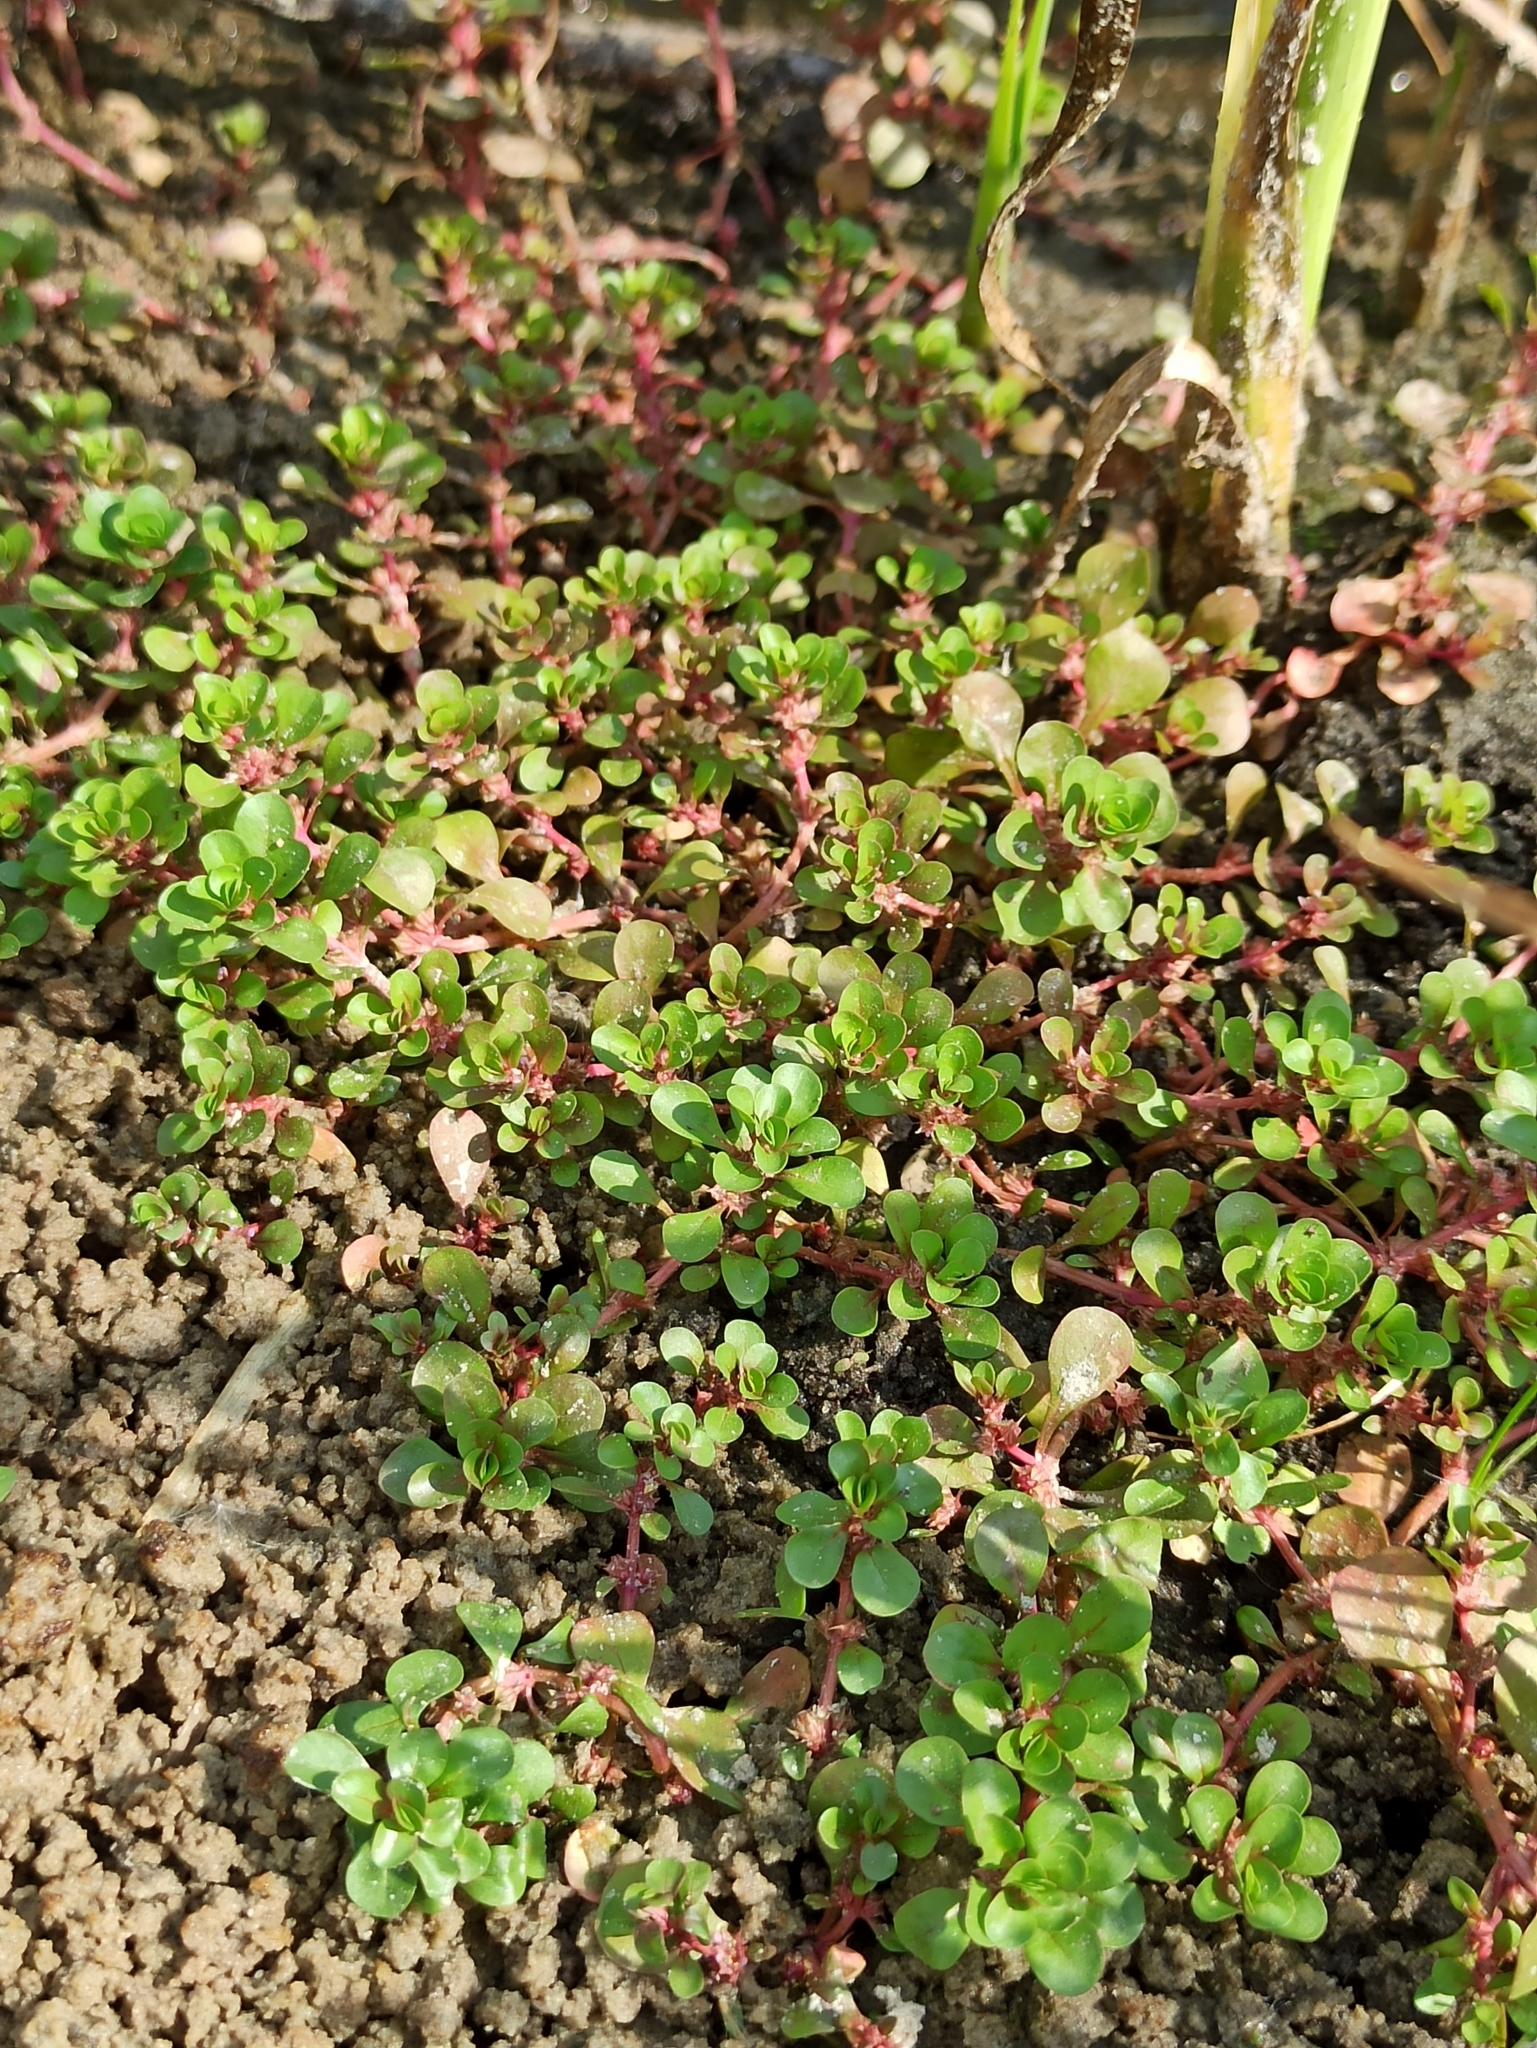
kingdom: Plantae
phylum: Tracheophyta
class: Magnoliopsida
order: Myrtales
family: Lythraceae
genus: Lythrum
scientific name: Lythrum portula
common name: Water purslane
